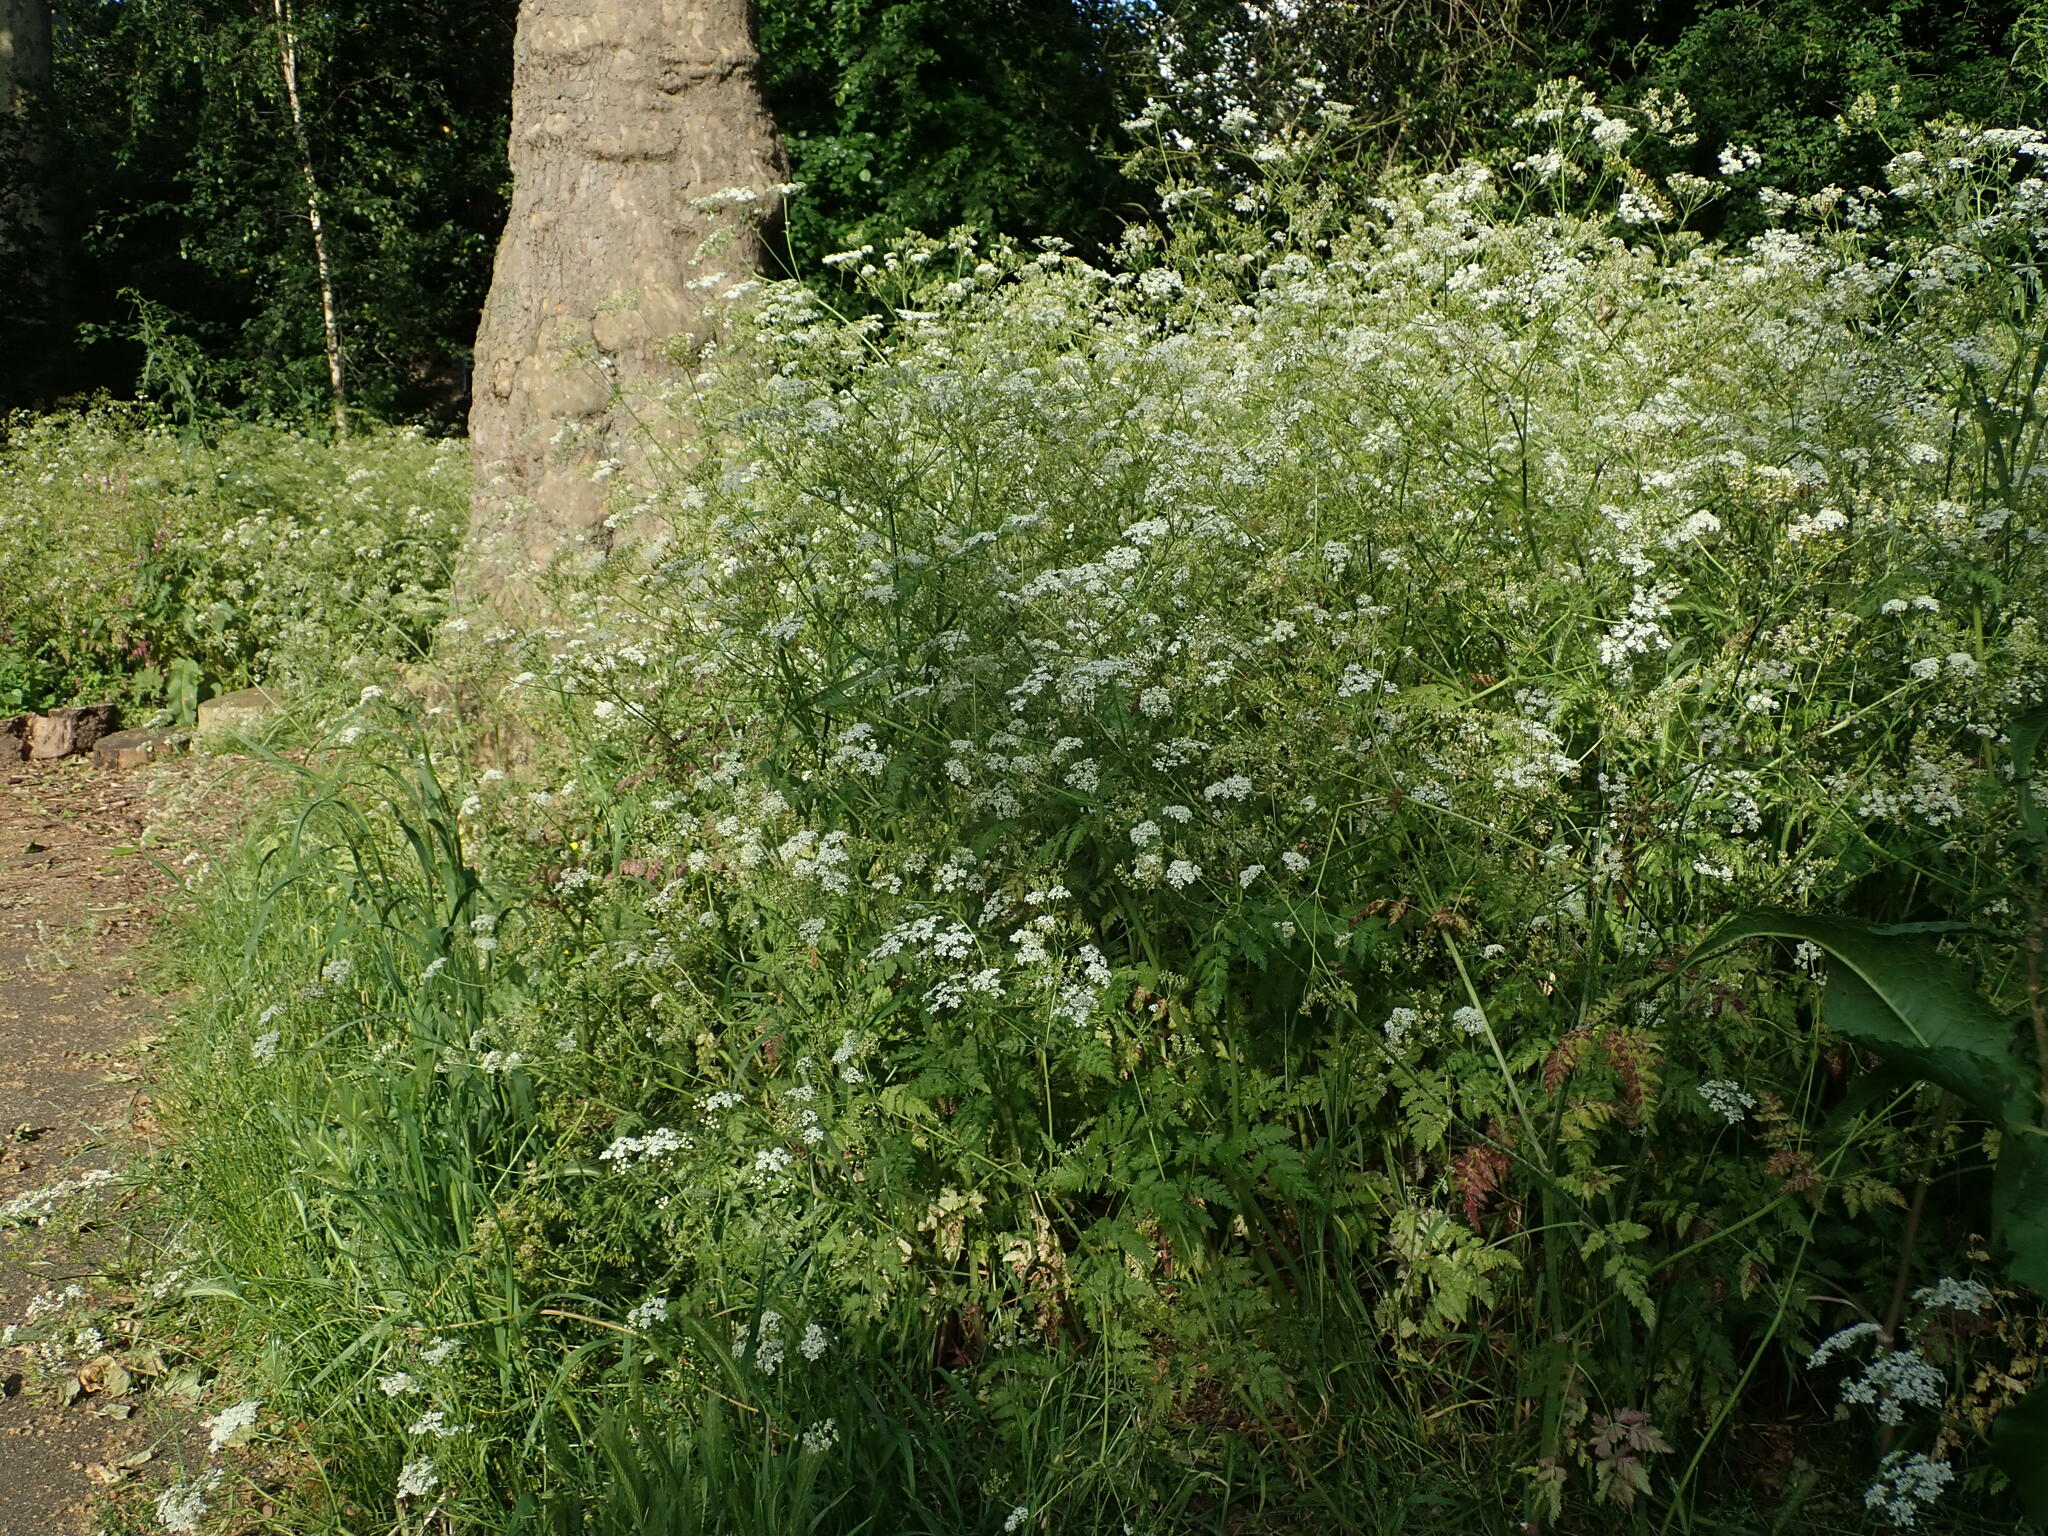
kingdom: Plantae
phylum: Tracheophyta
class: Magnoliopsida
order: Apiales
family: Apiaceae
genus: Anthriscus
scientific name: Anthriscus sylvestris
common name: Cow parsley
